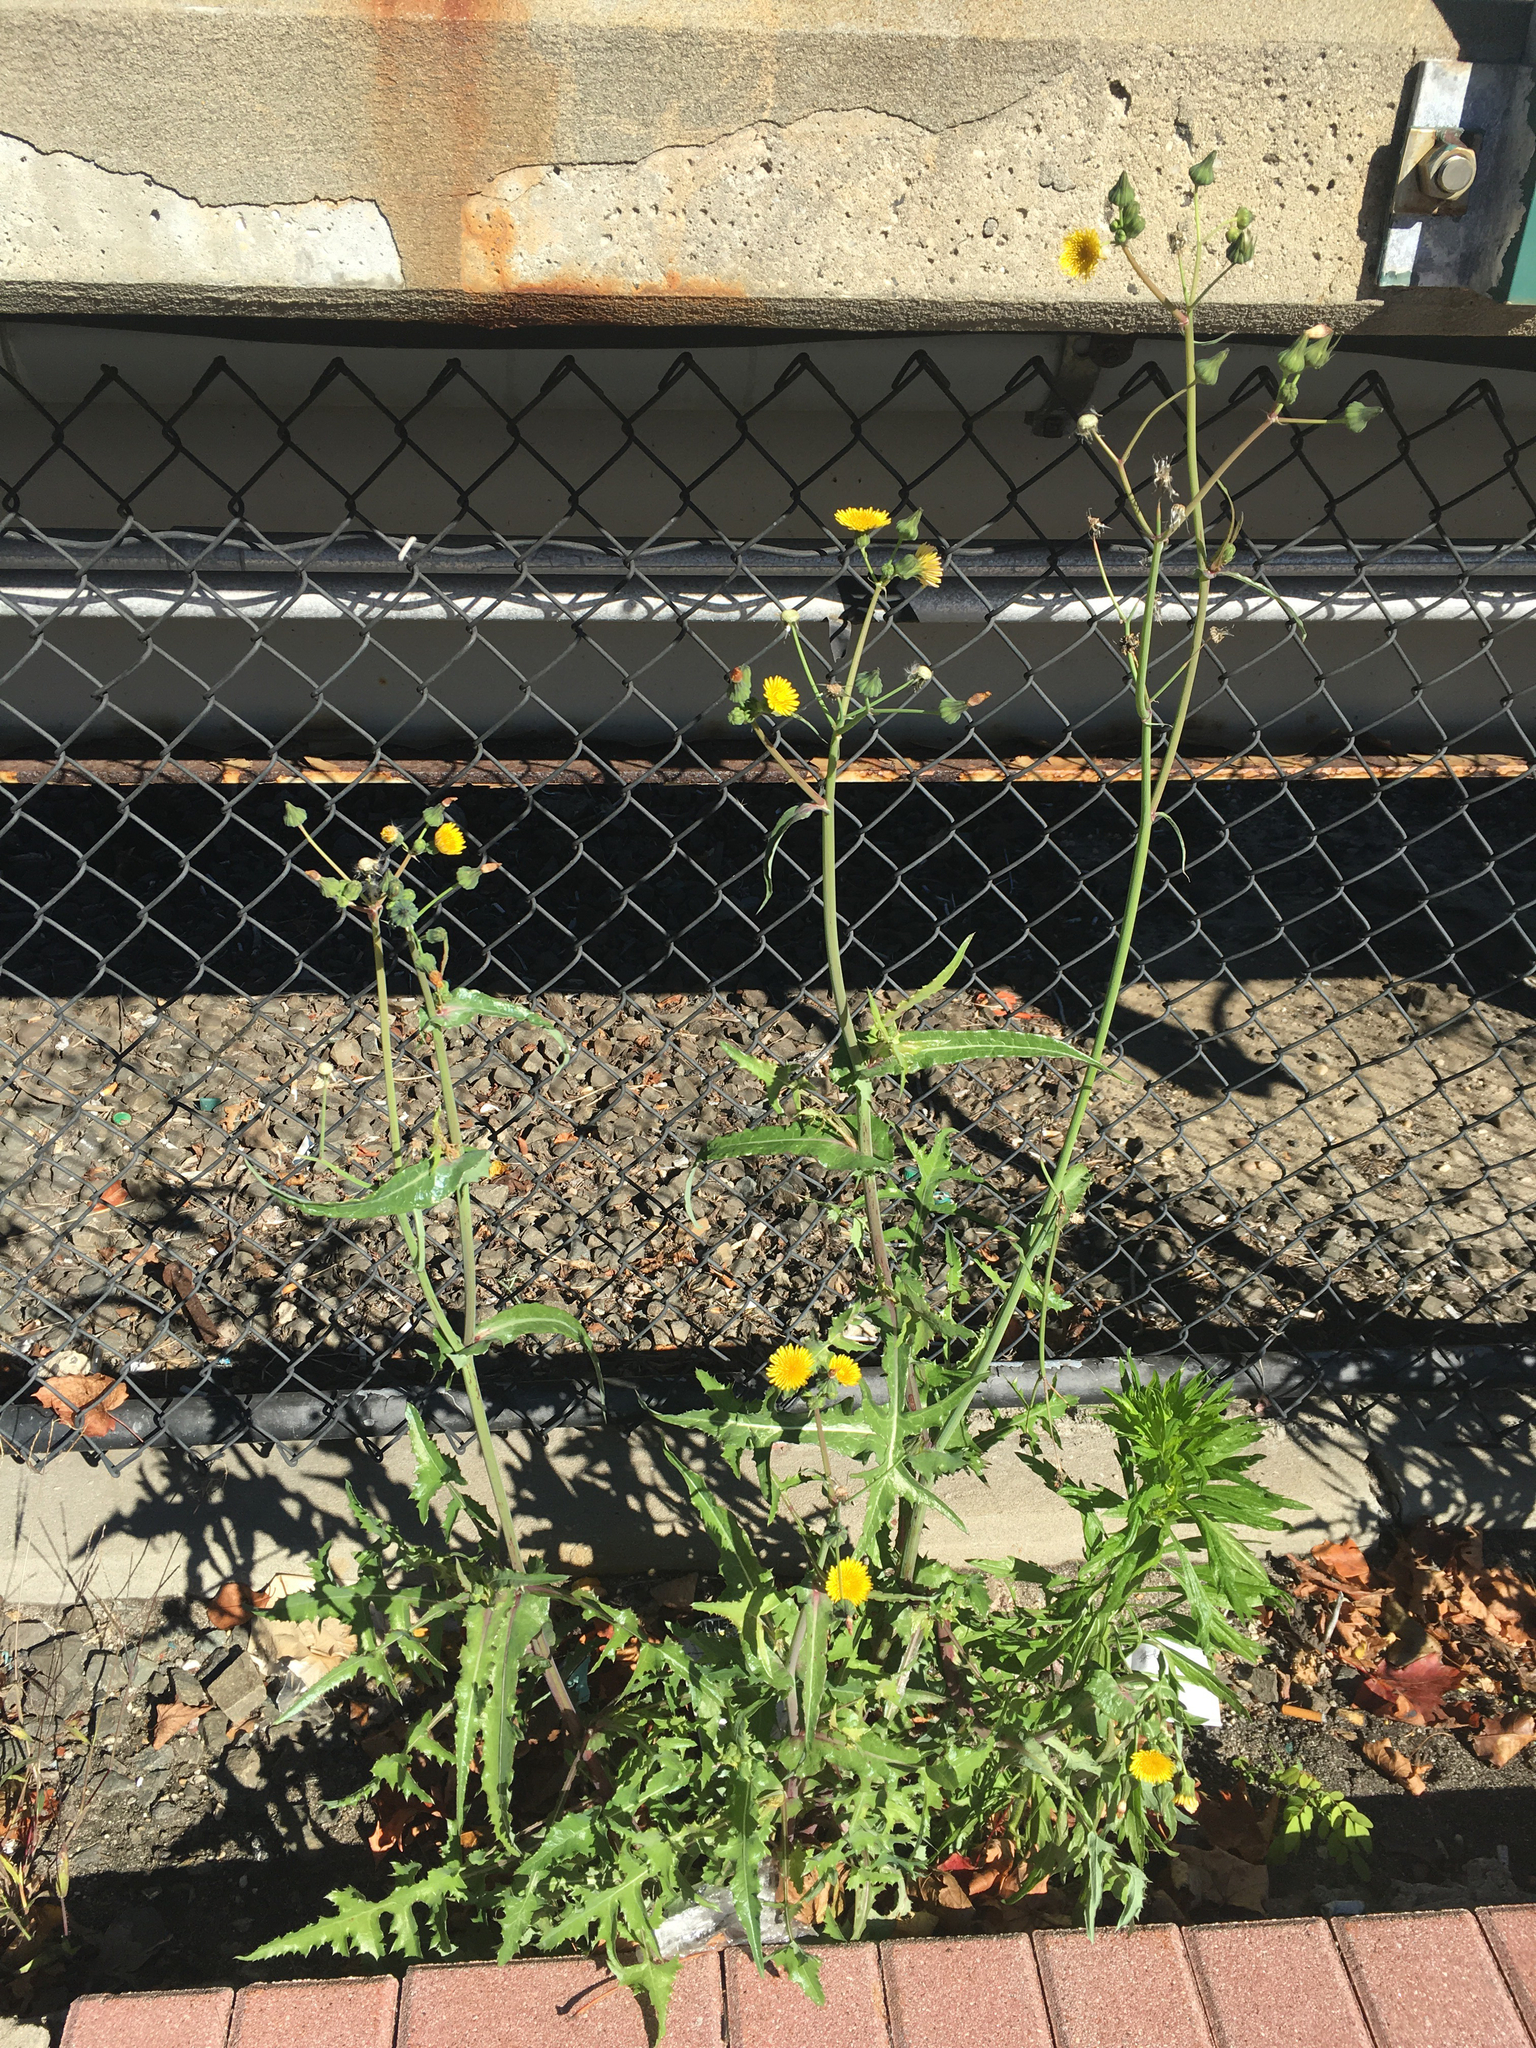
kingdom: Plantae
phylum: Tracheophyta
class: Magnoliopsida
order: Asterales
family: Asteraceae
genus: Sonchus
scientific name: Sonchus oleraceus
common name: Common sowthistle
